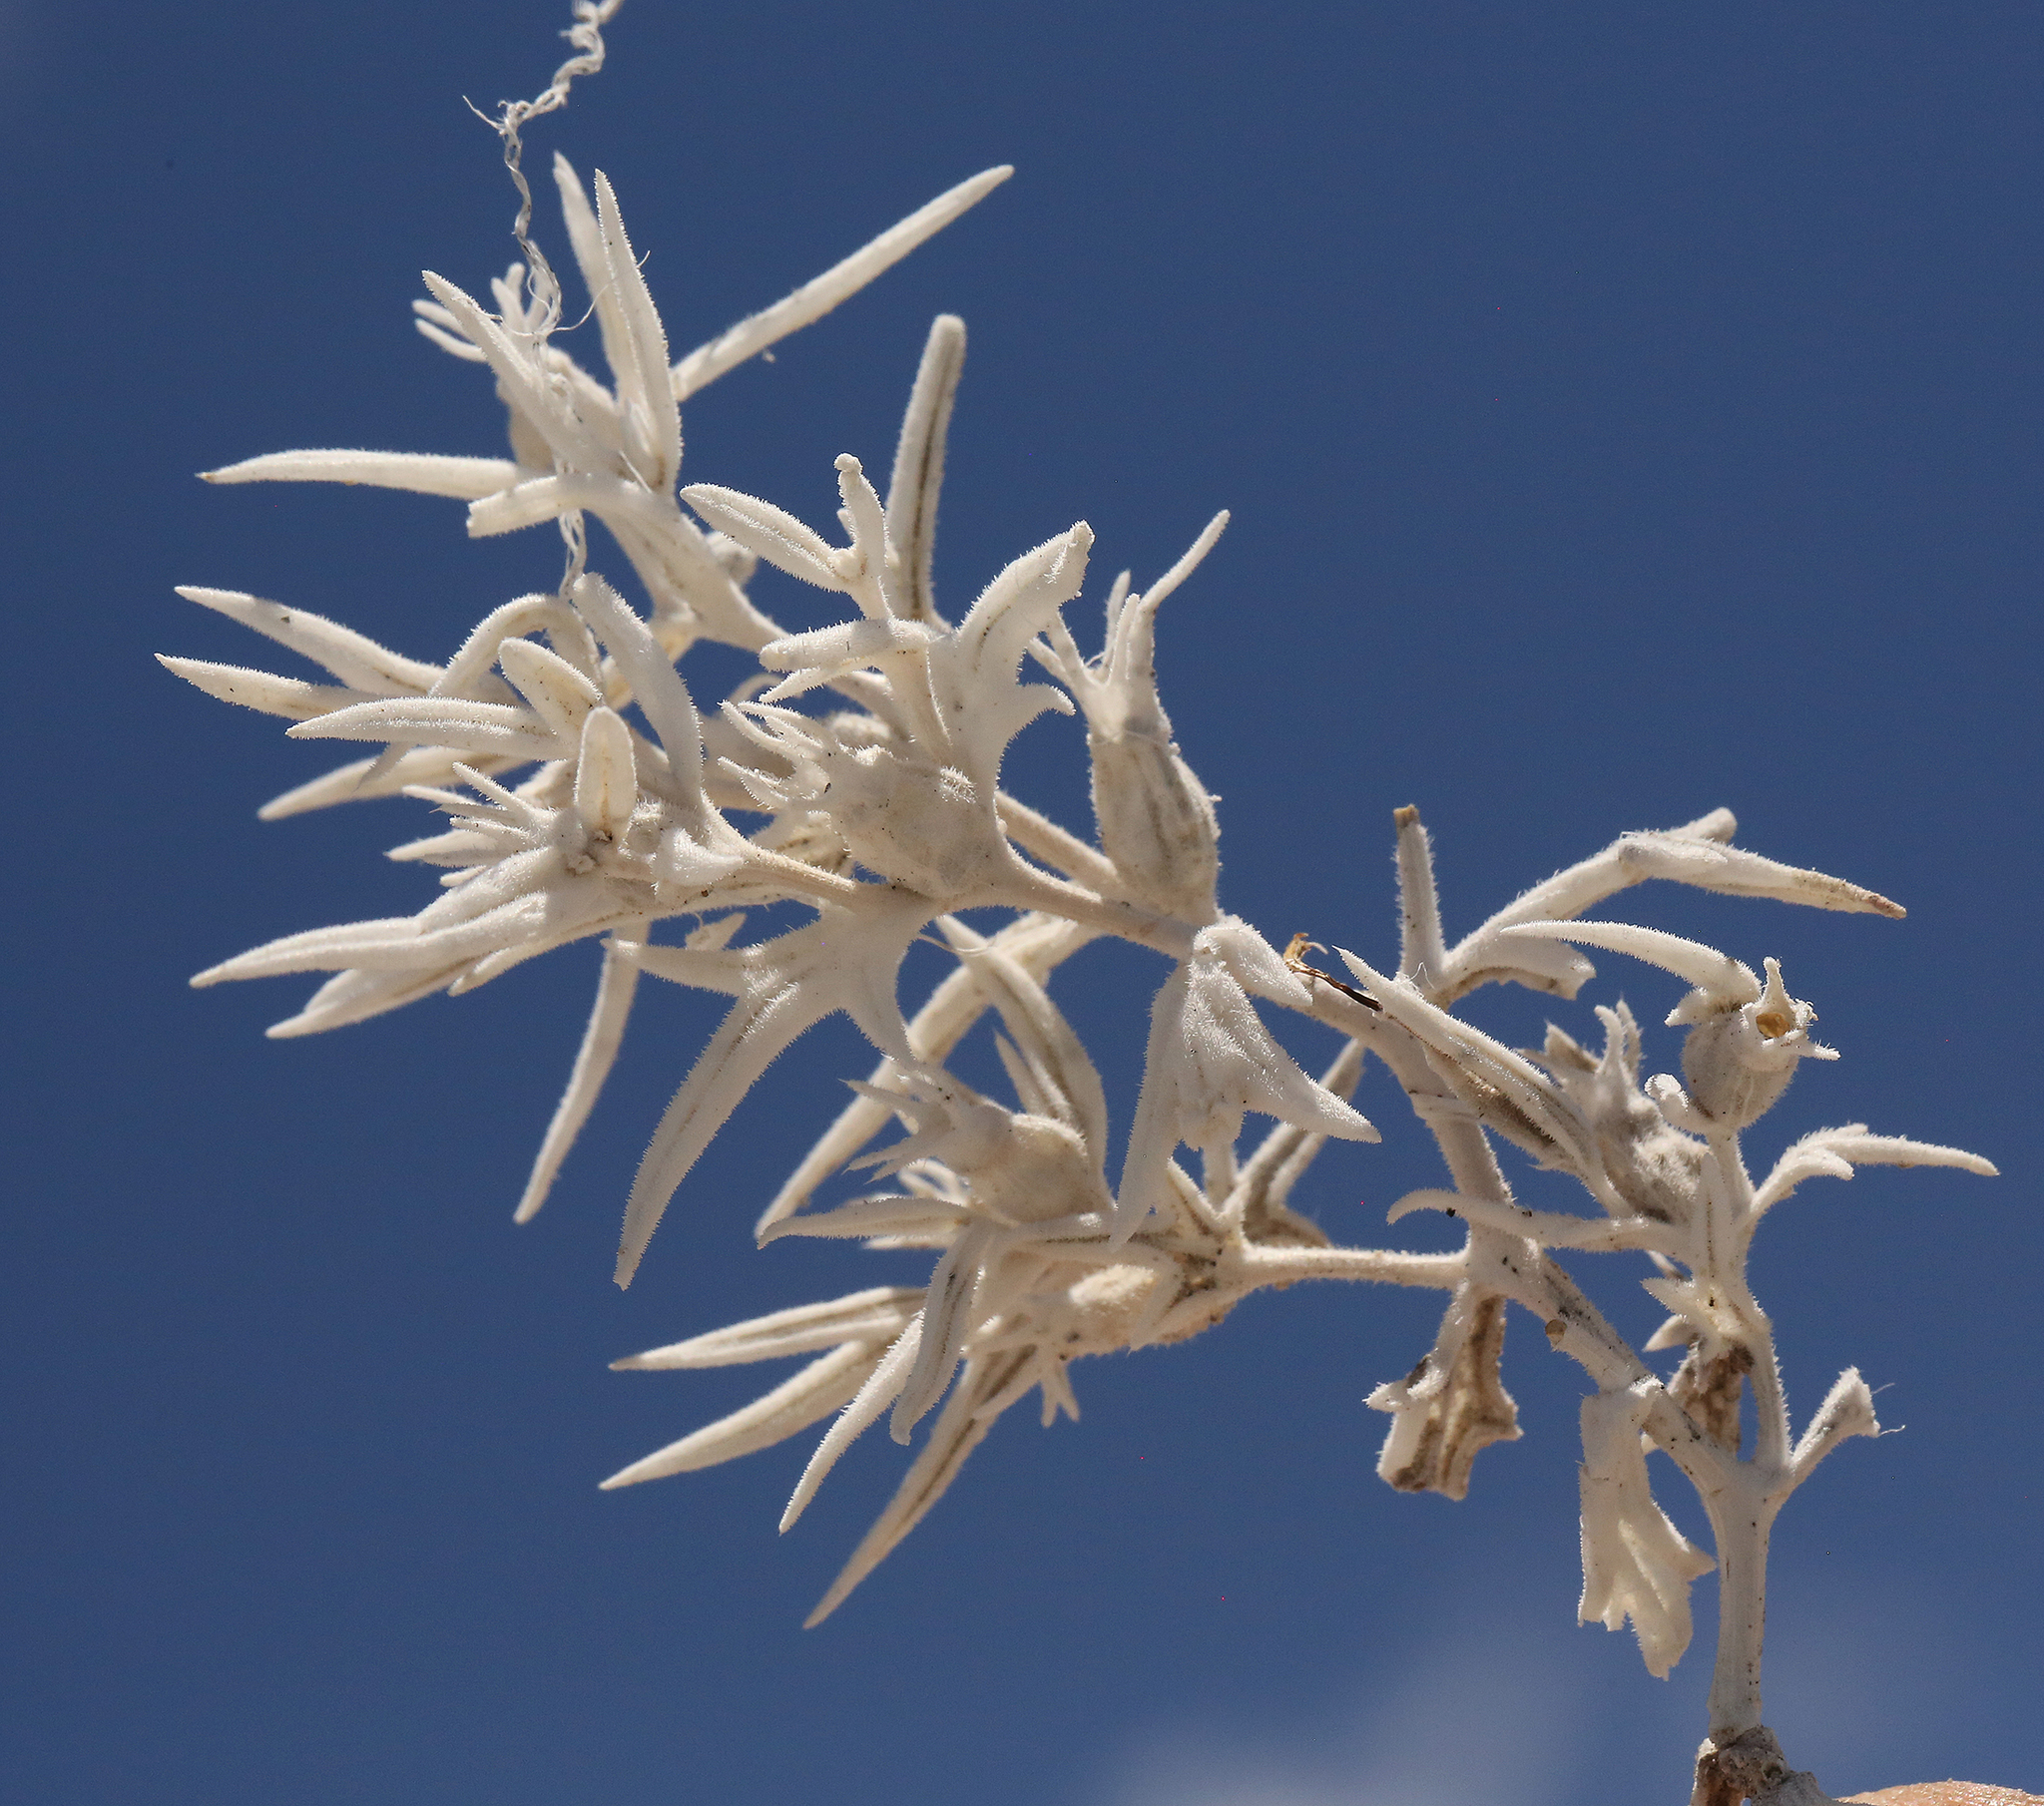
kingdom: Plantae
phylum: Tracheophyta
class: Magnoliopsida
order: Cornales
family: Loasaceae
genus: Mentzelia
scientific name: Mentzelia torreyi
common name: Torrey's blazingstar
